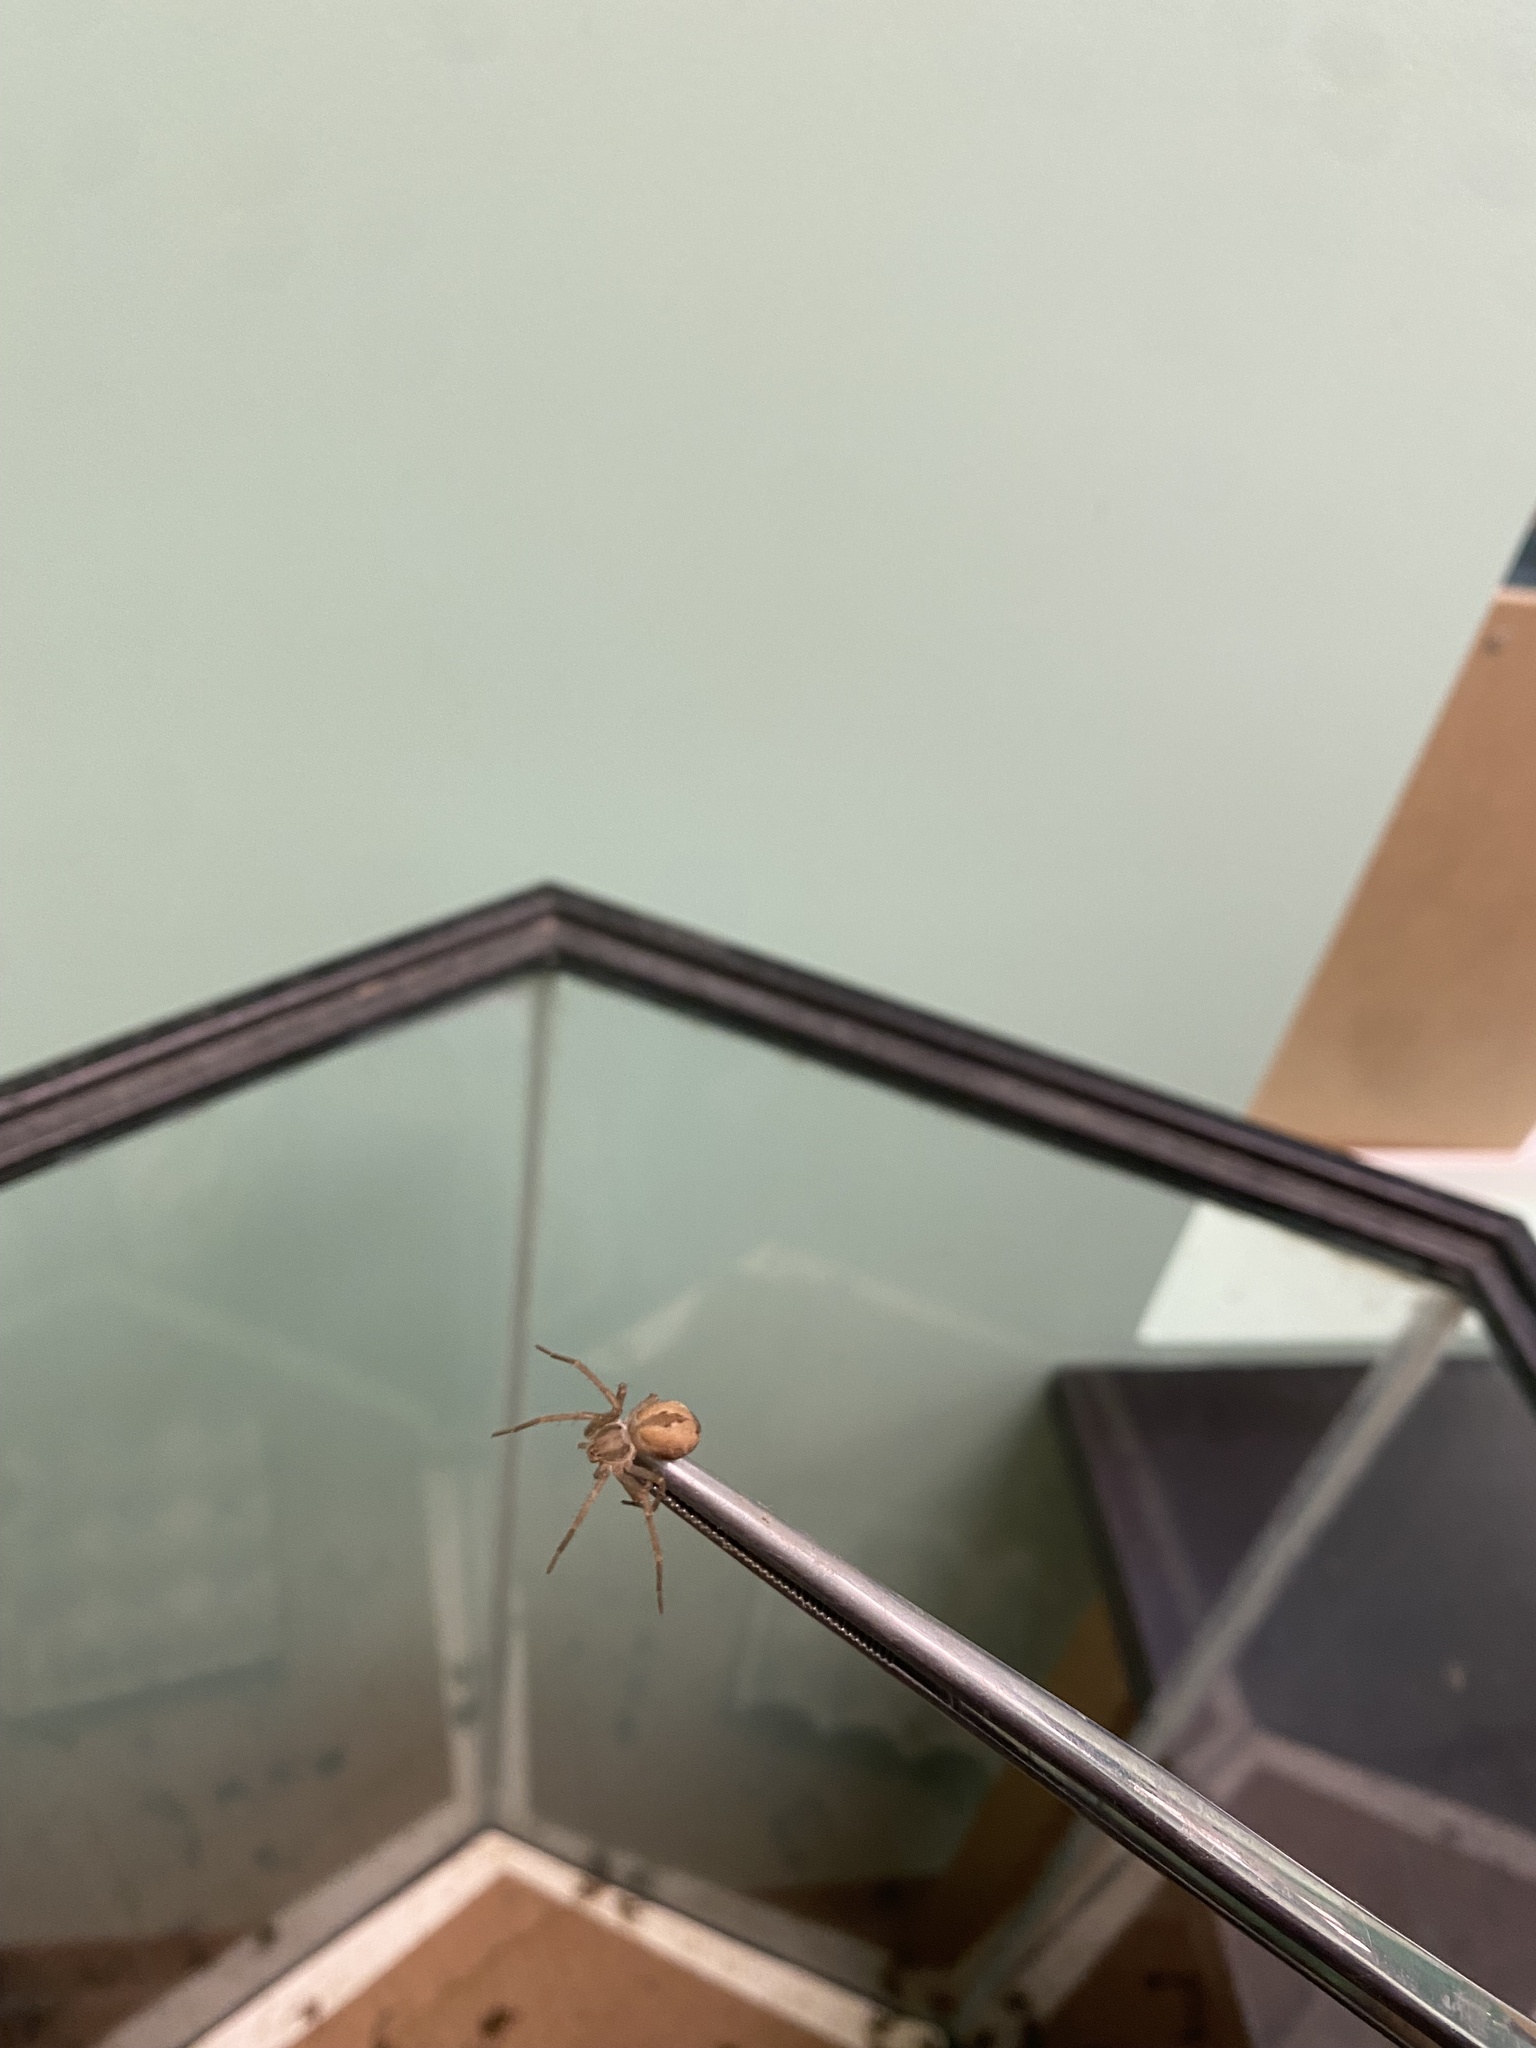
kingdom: Animalia
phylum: Arthropoda
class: Arachnida
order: Araneae
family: Philodromidae
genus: Thanatus
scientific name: Thanatus vulgaris
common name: European running crab spider
